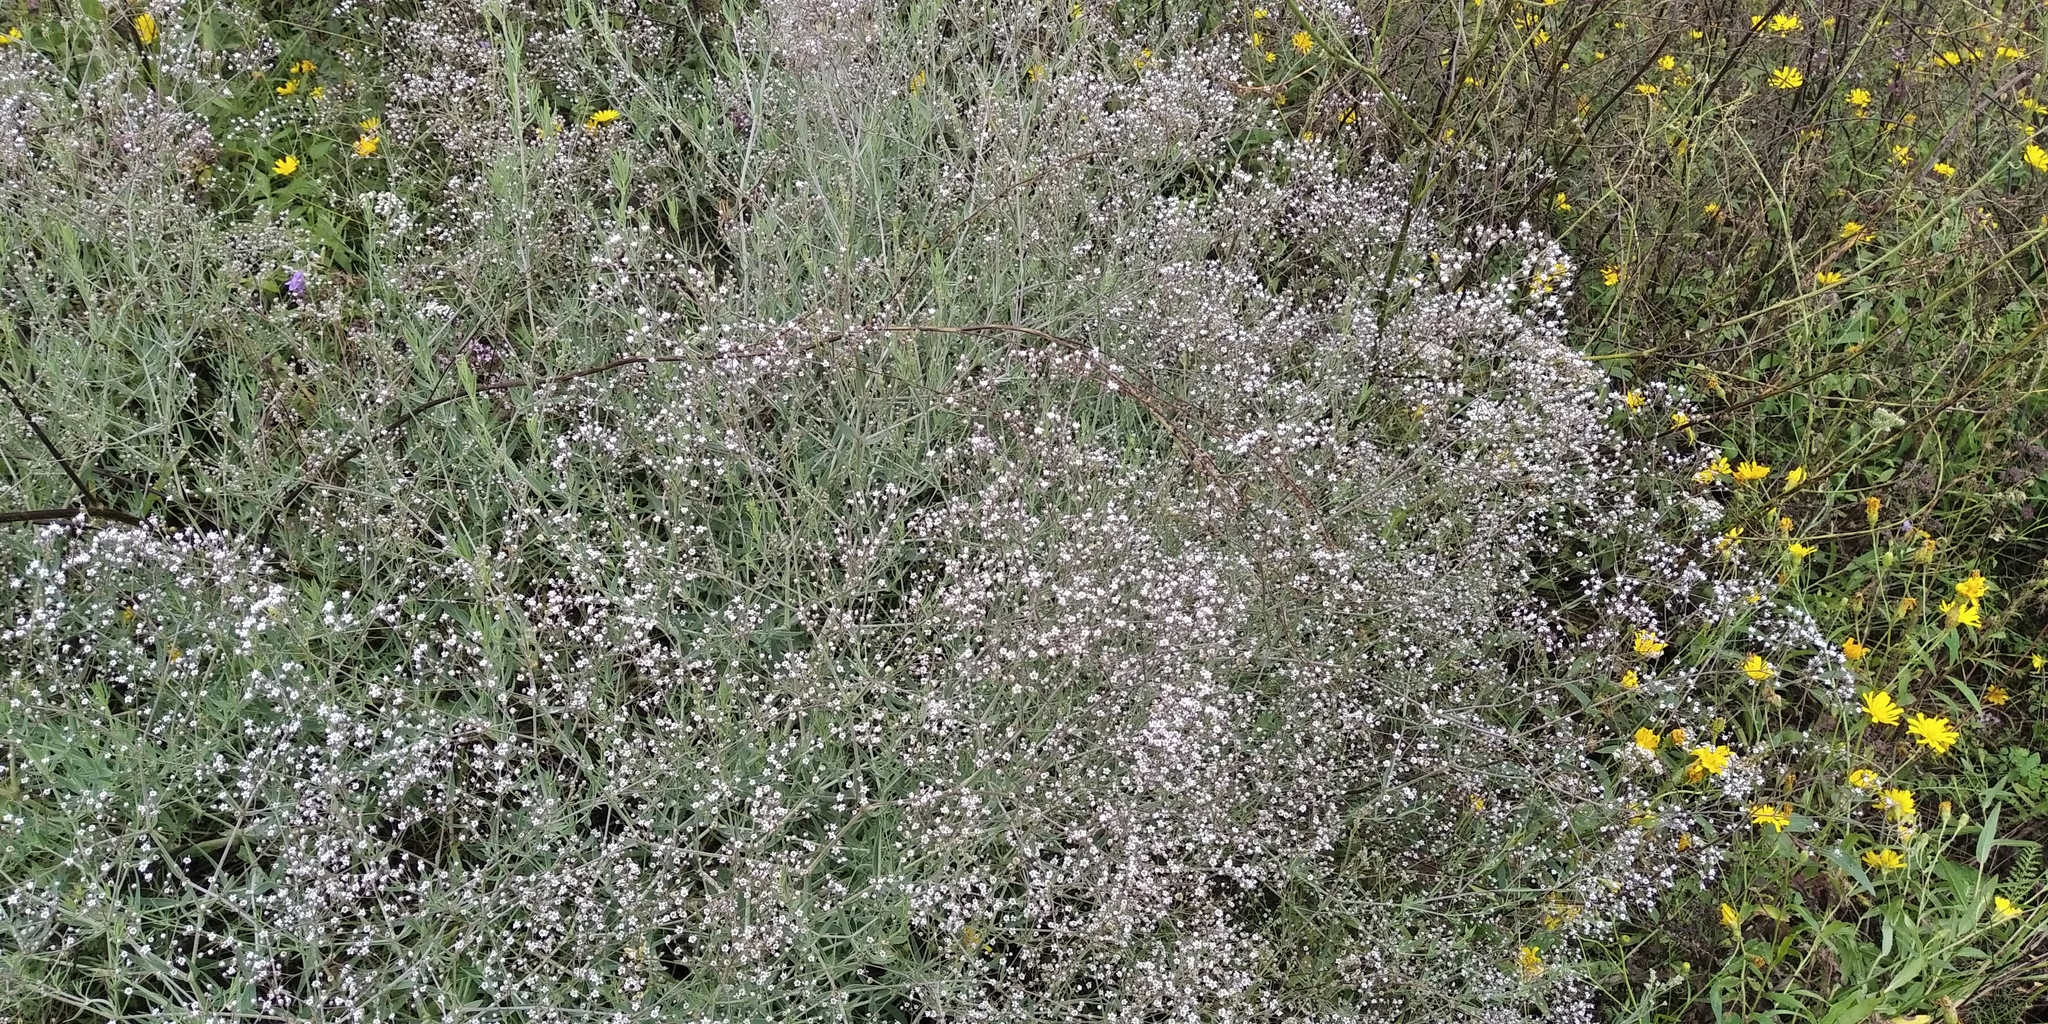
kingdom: Plantae
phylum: Tracheophyta
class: Magnoliopsida
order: Caryophyllales
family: Caryophyllaceae
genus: Gypsophila
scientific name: Gypsophila paniculata
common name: Baby's-breath
